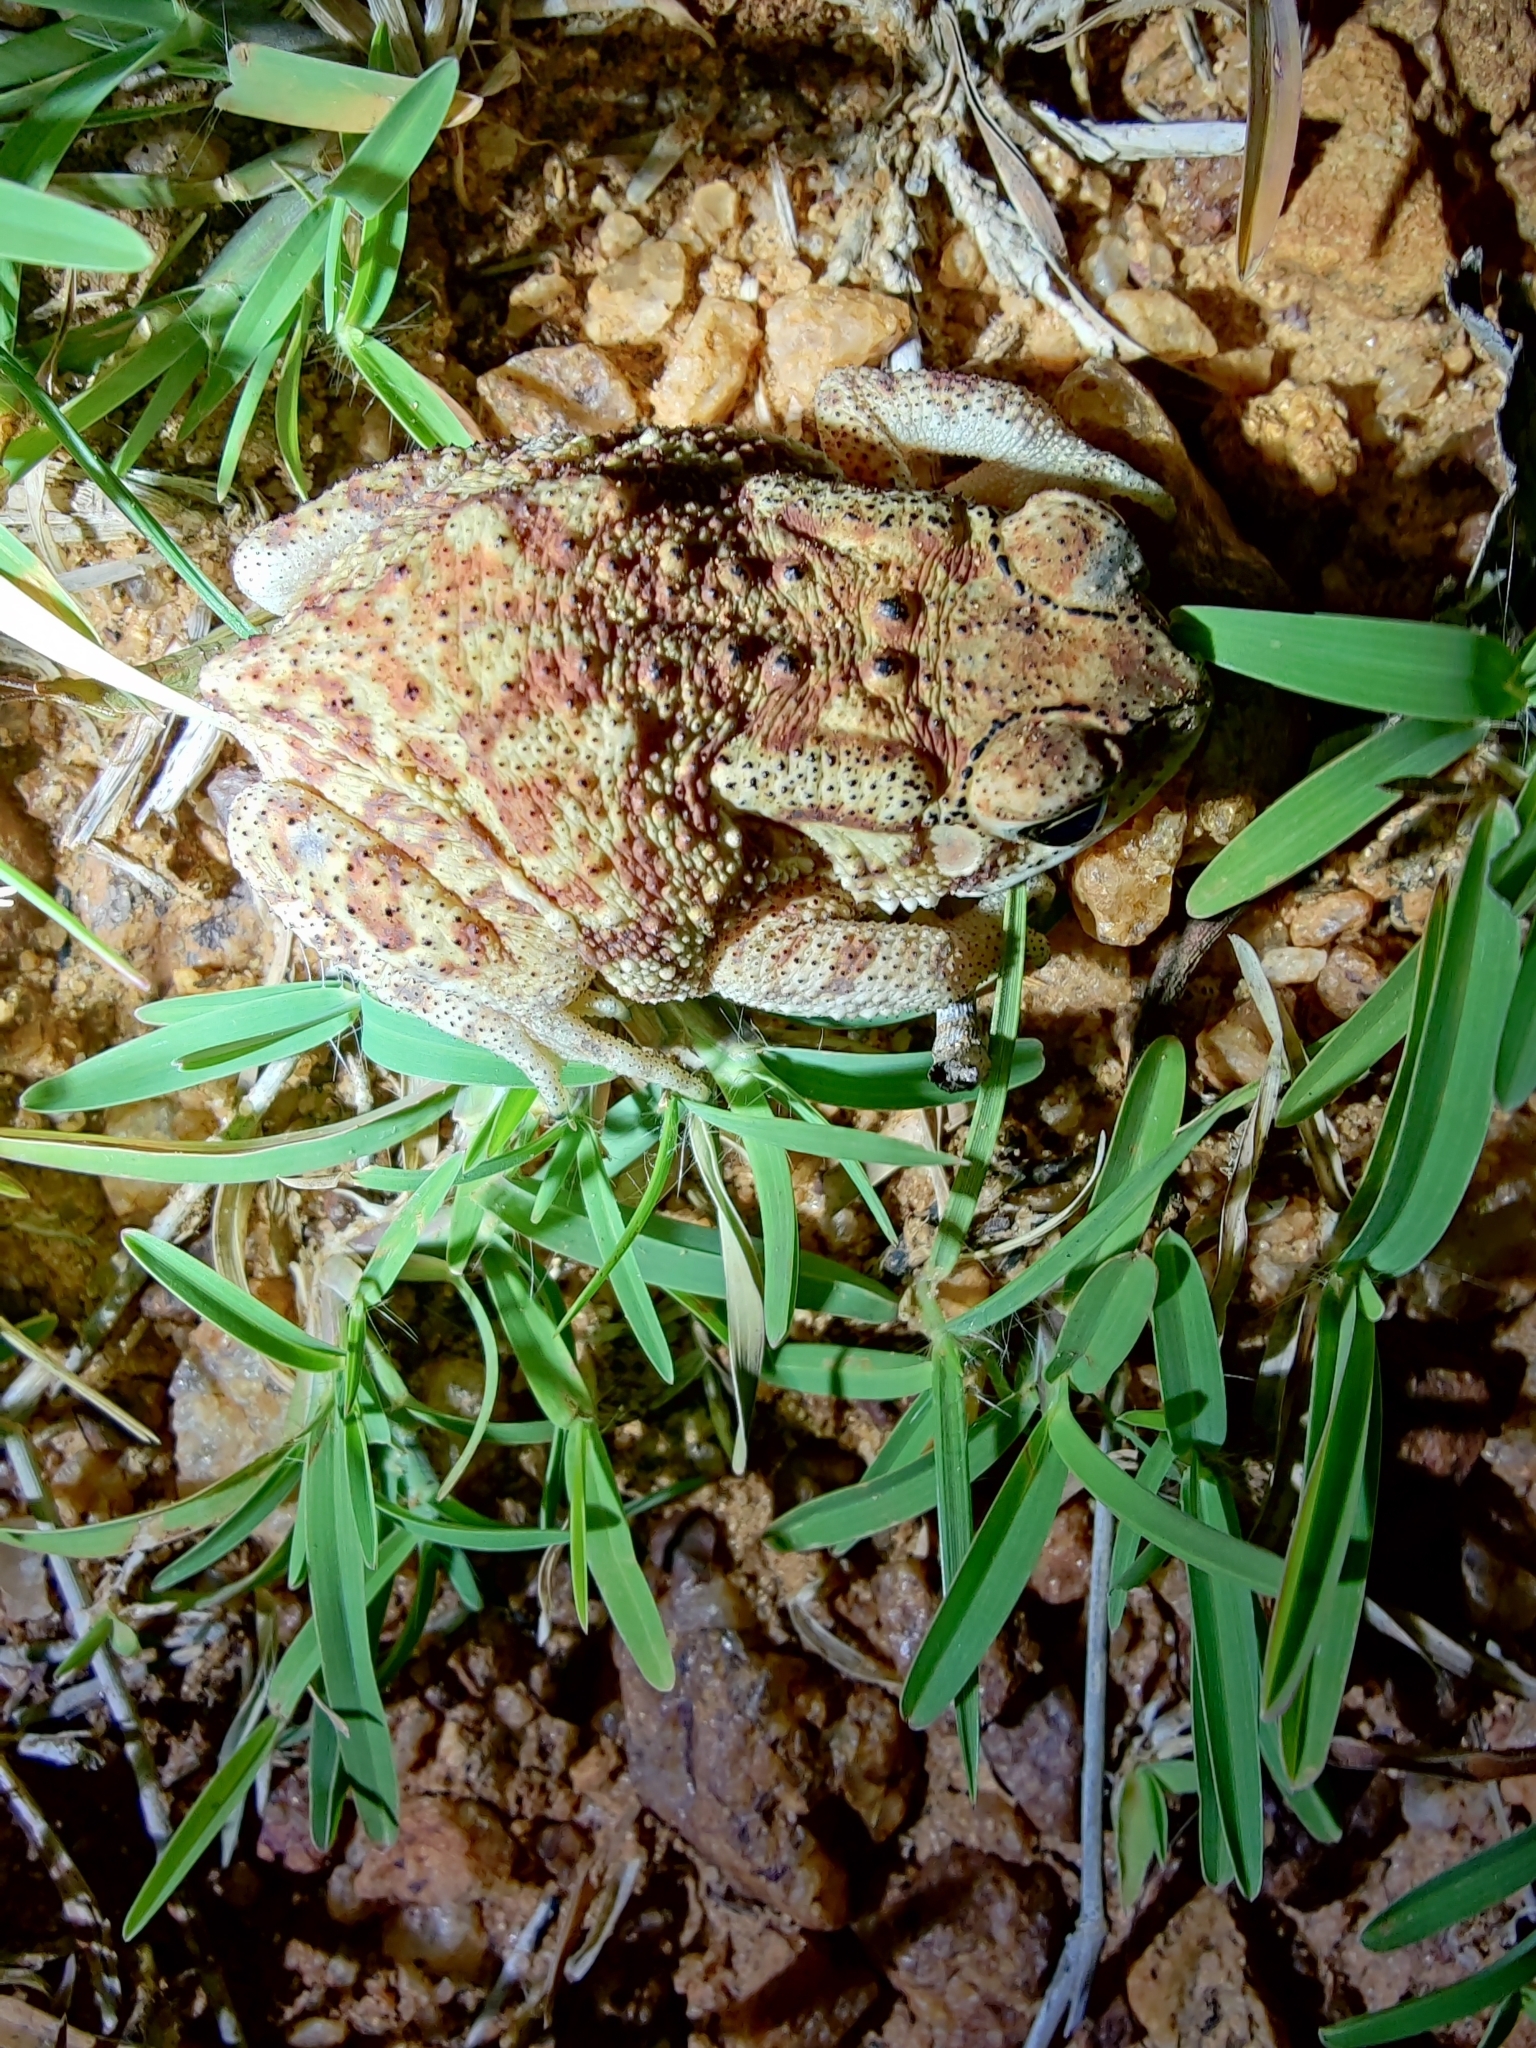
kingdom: Animalia
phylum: Chordata
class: Amphibia
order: Anura
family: Bufonidae
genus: Duttaphrynus
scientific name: Duttaphrynus melanostictus
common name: Common sunda toad
